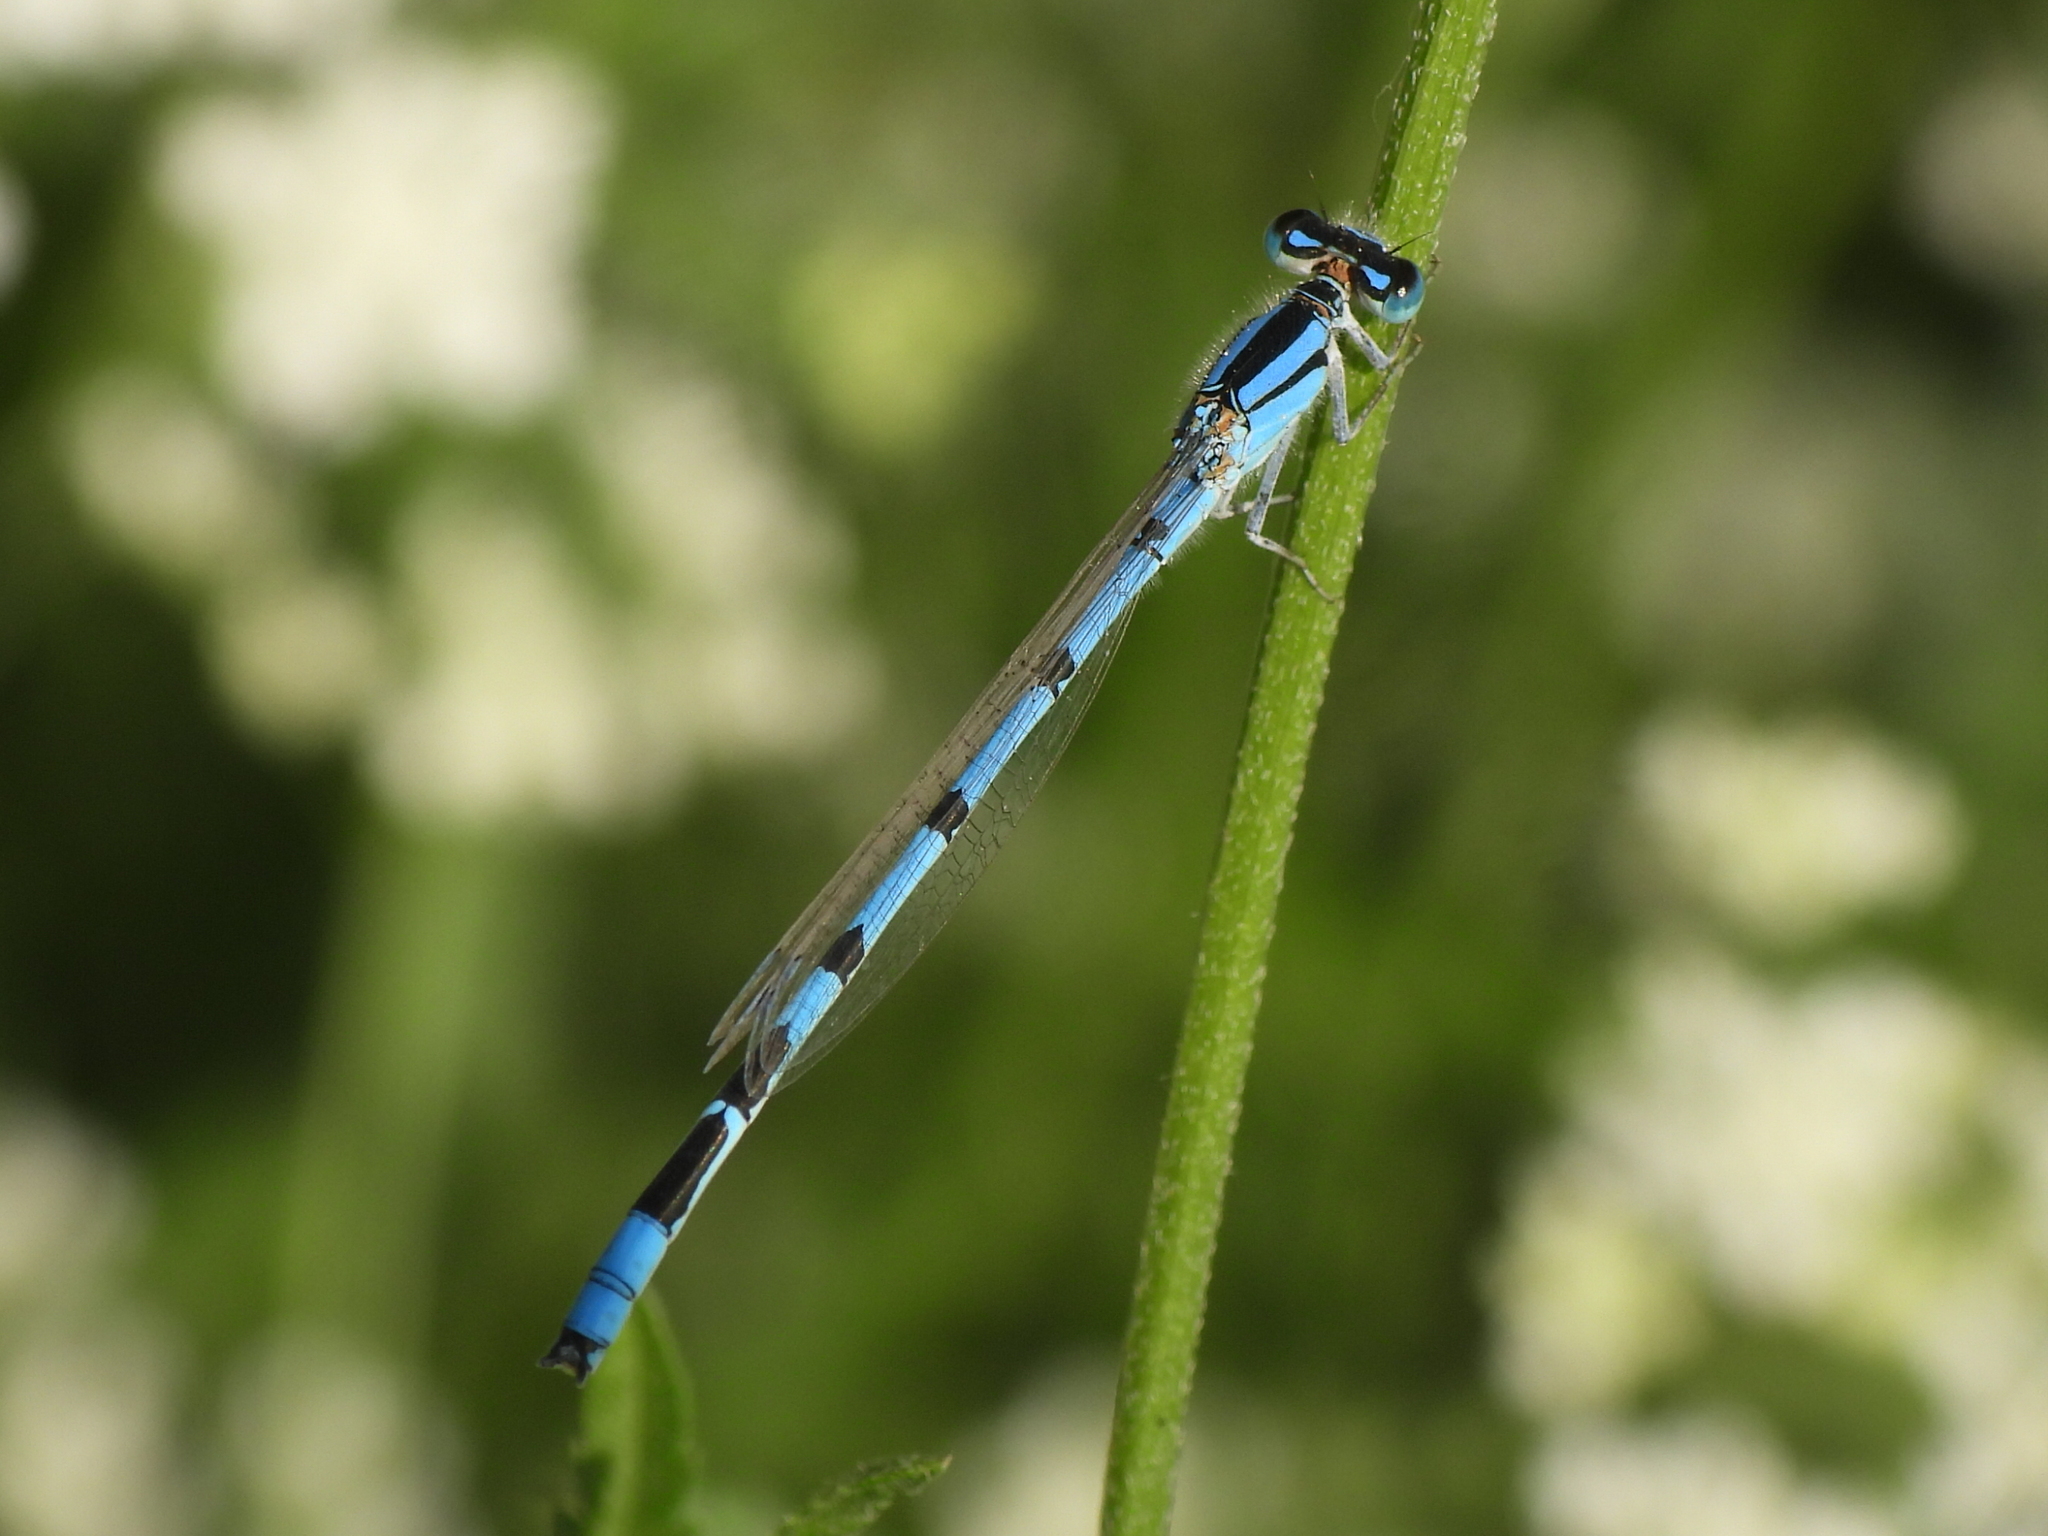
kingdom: Animalia
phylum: Arthropoda
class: Insecta
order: Odonata
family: Coenagrionidae
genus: Enallagma
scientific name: Enallagma civile
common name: Damselfly
